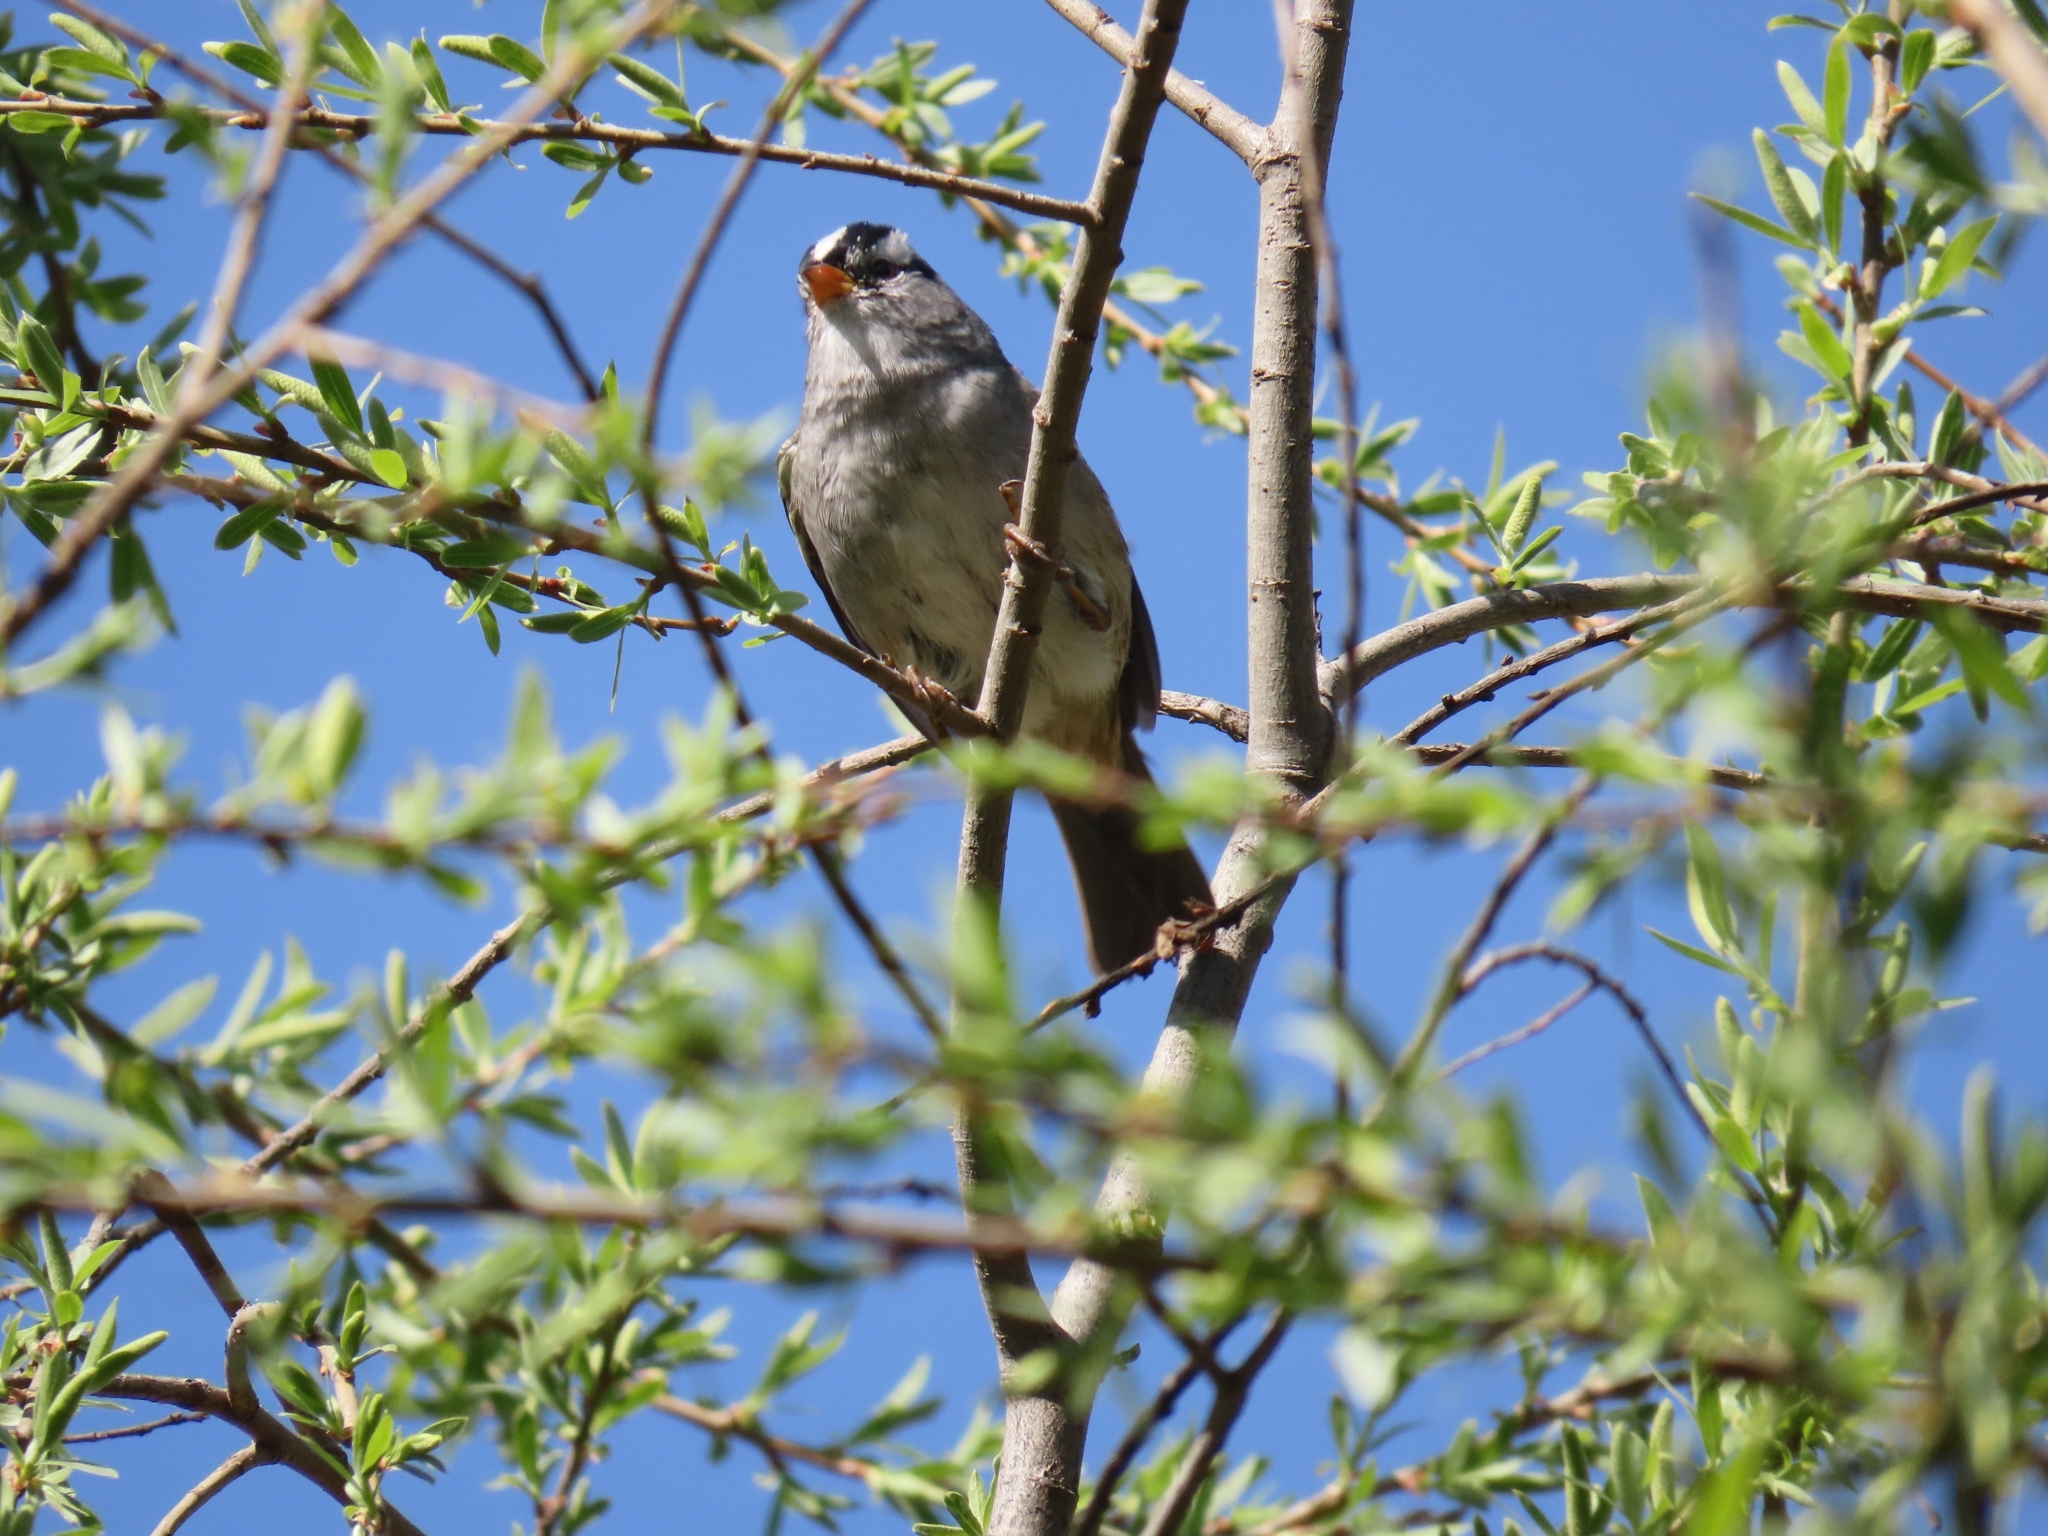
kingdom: Animalia
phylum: Chordata
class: Aves
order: Passeriformes
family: Passerellidae
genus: Zonotrichia
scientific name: Zonotrichia leucophrys
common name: White-crowned sparrow
